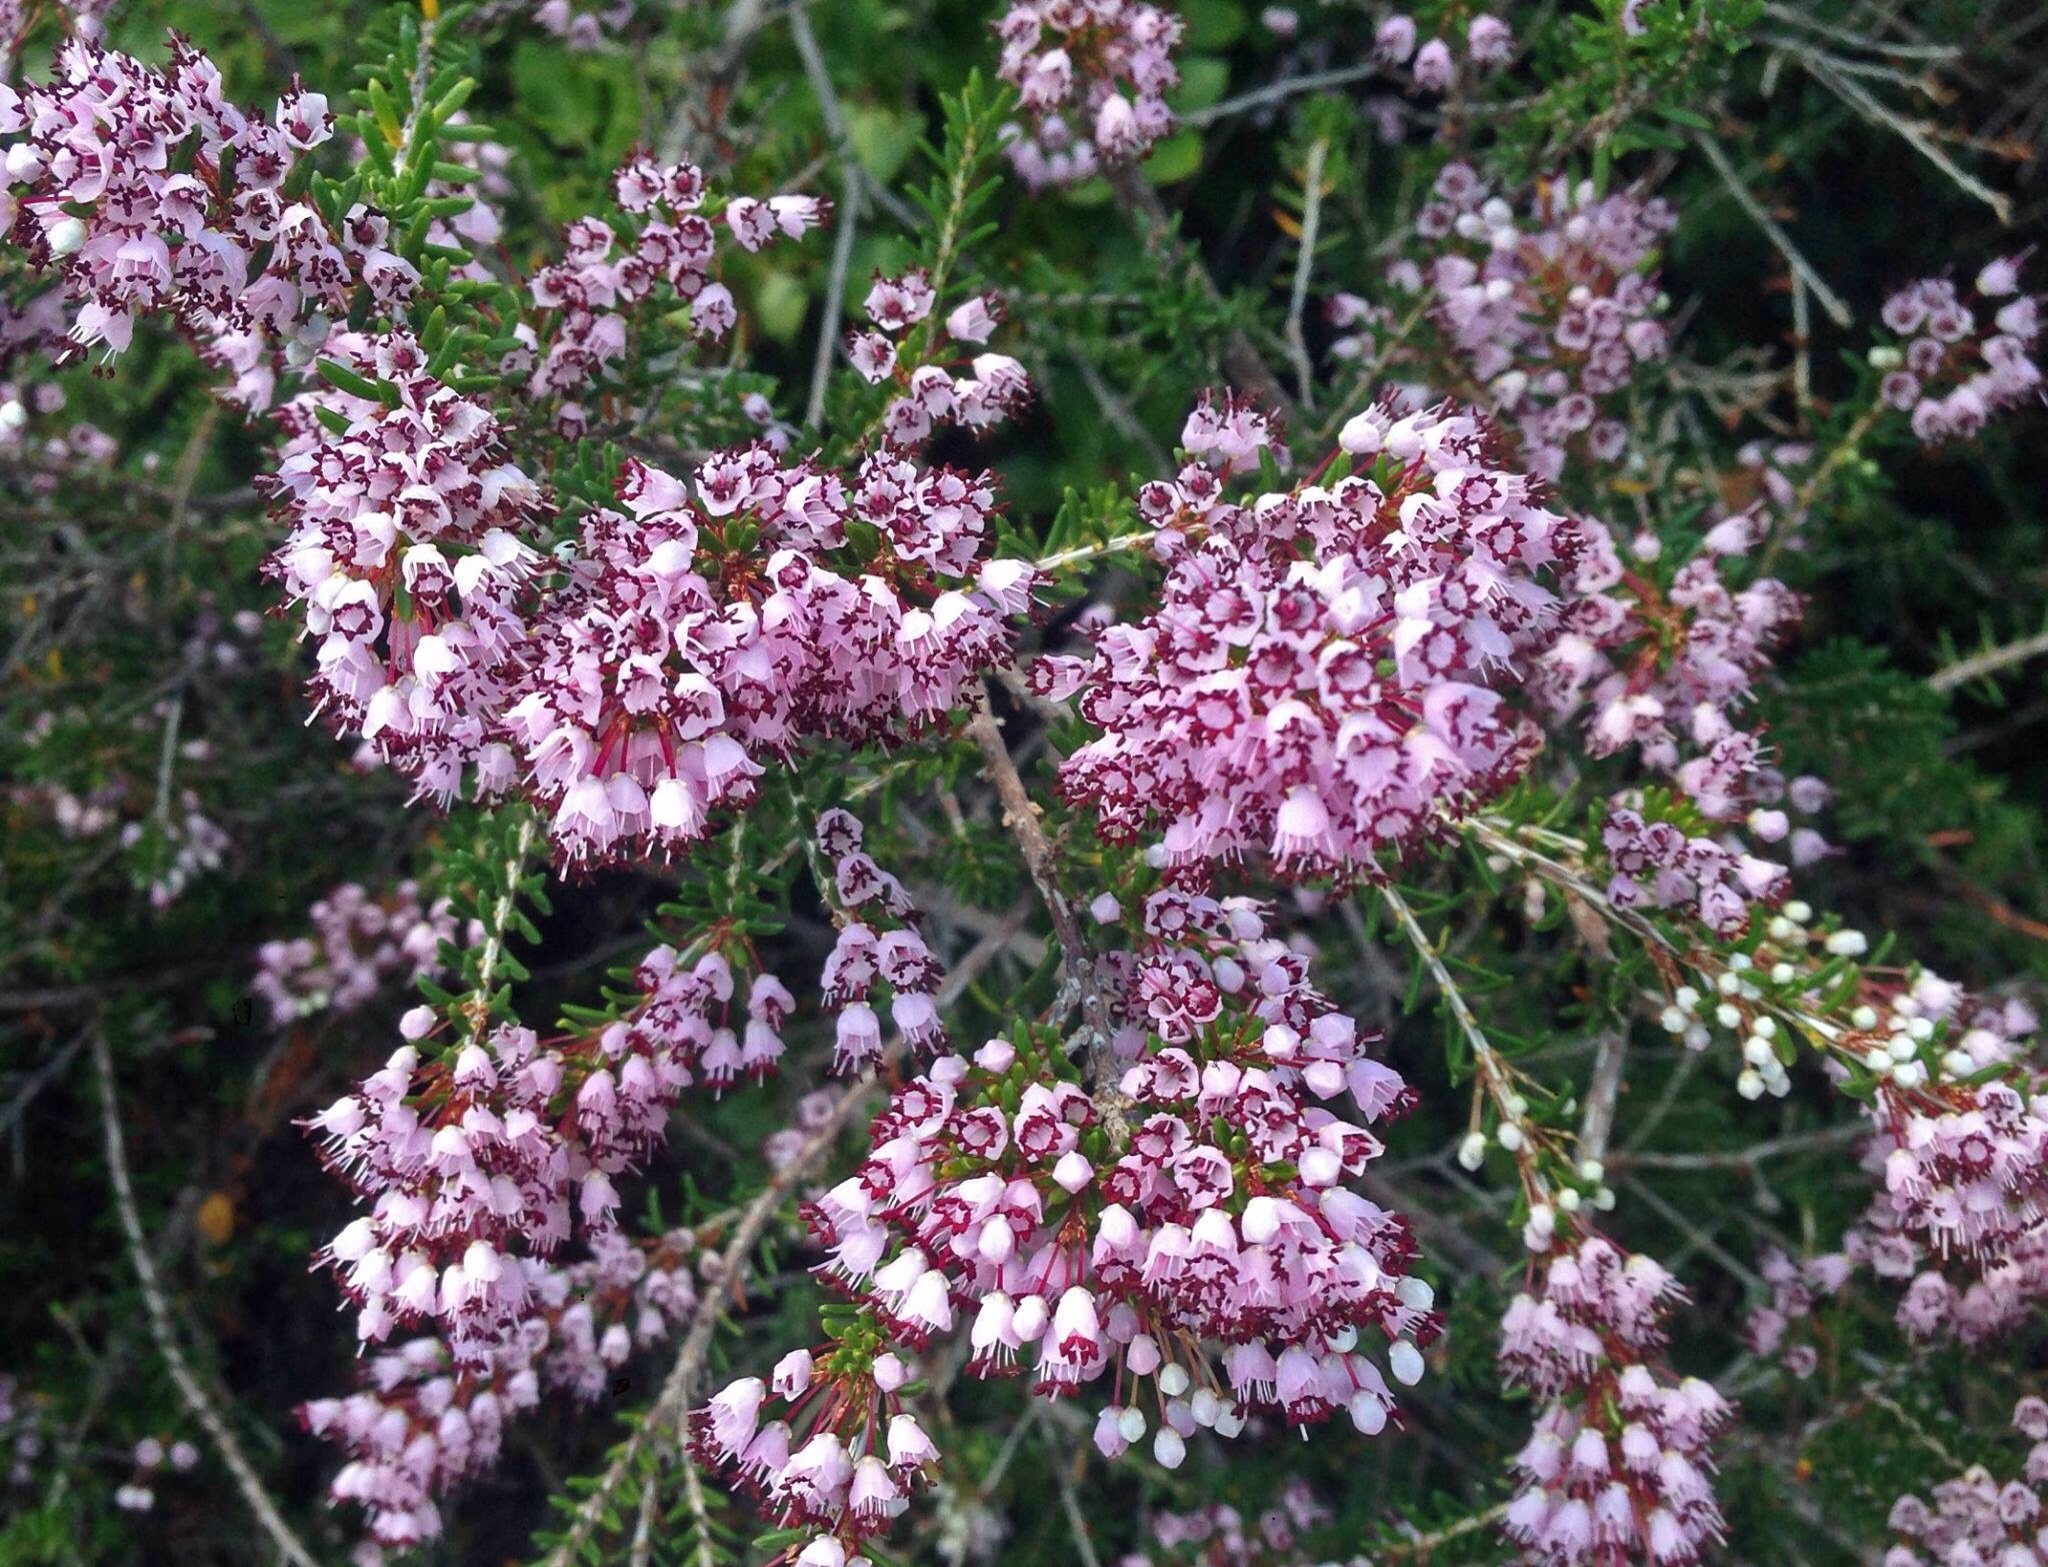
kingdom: Plantae
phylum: Tracheophyta
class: Magnoliopsida
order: Ericales
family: Ericaceae
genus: Erica
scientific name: Erica manipuliflora
